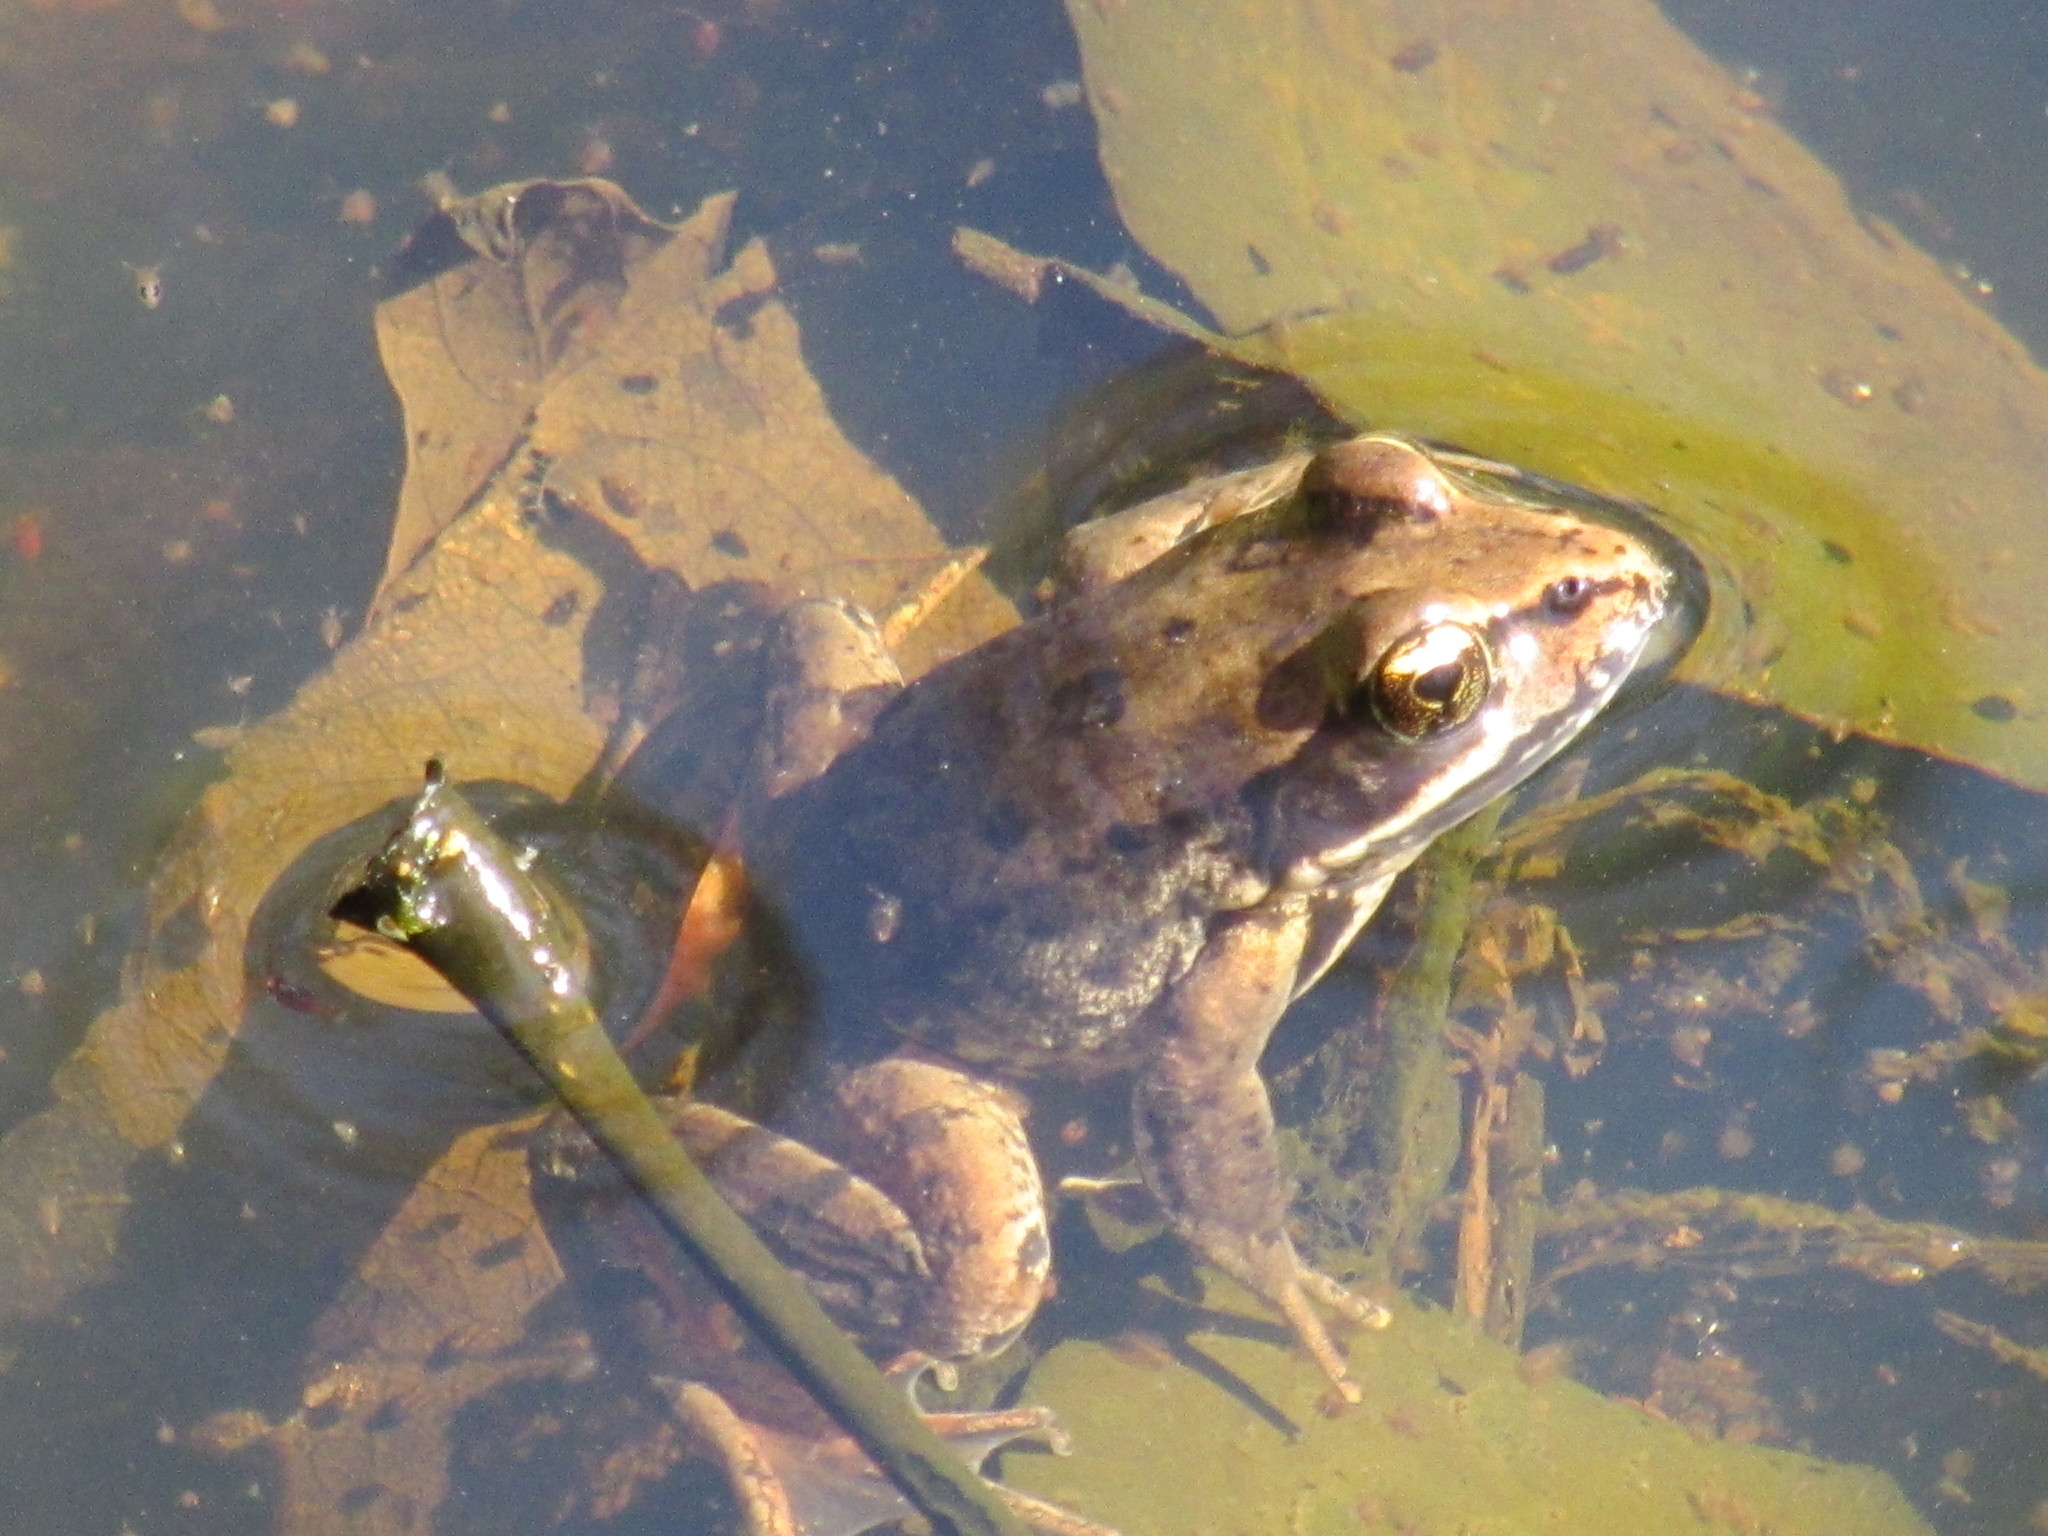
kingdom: Animalia
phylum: Chordata
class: Amphibia
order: Anura
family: Ranidae
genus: Rana
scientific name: Rana aurora
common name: Red-legged frog
